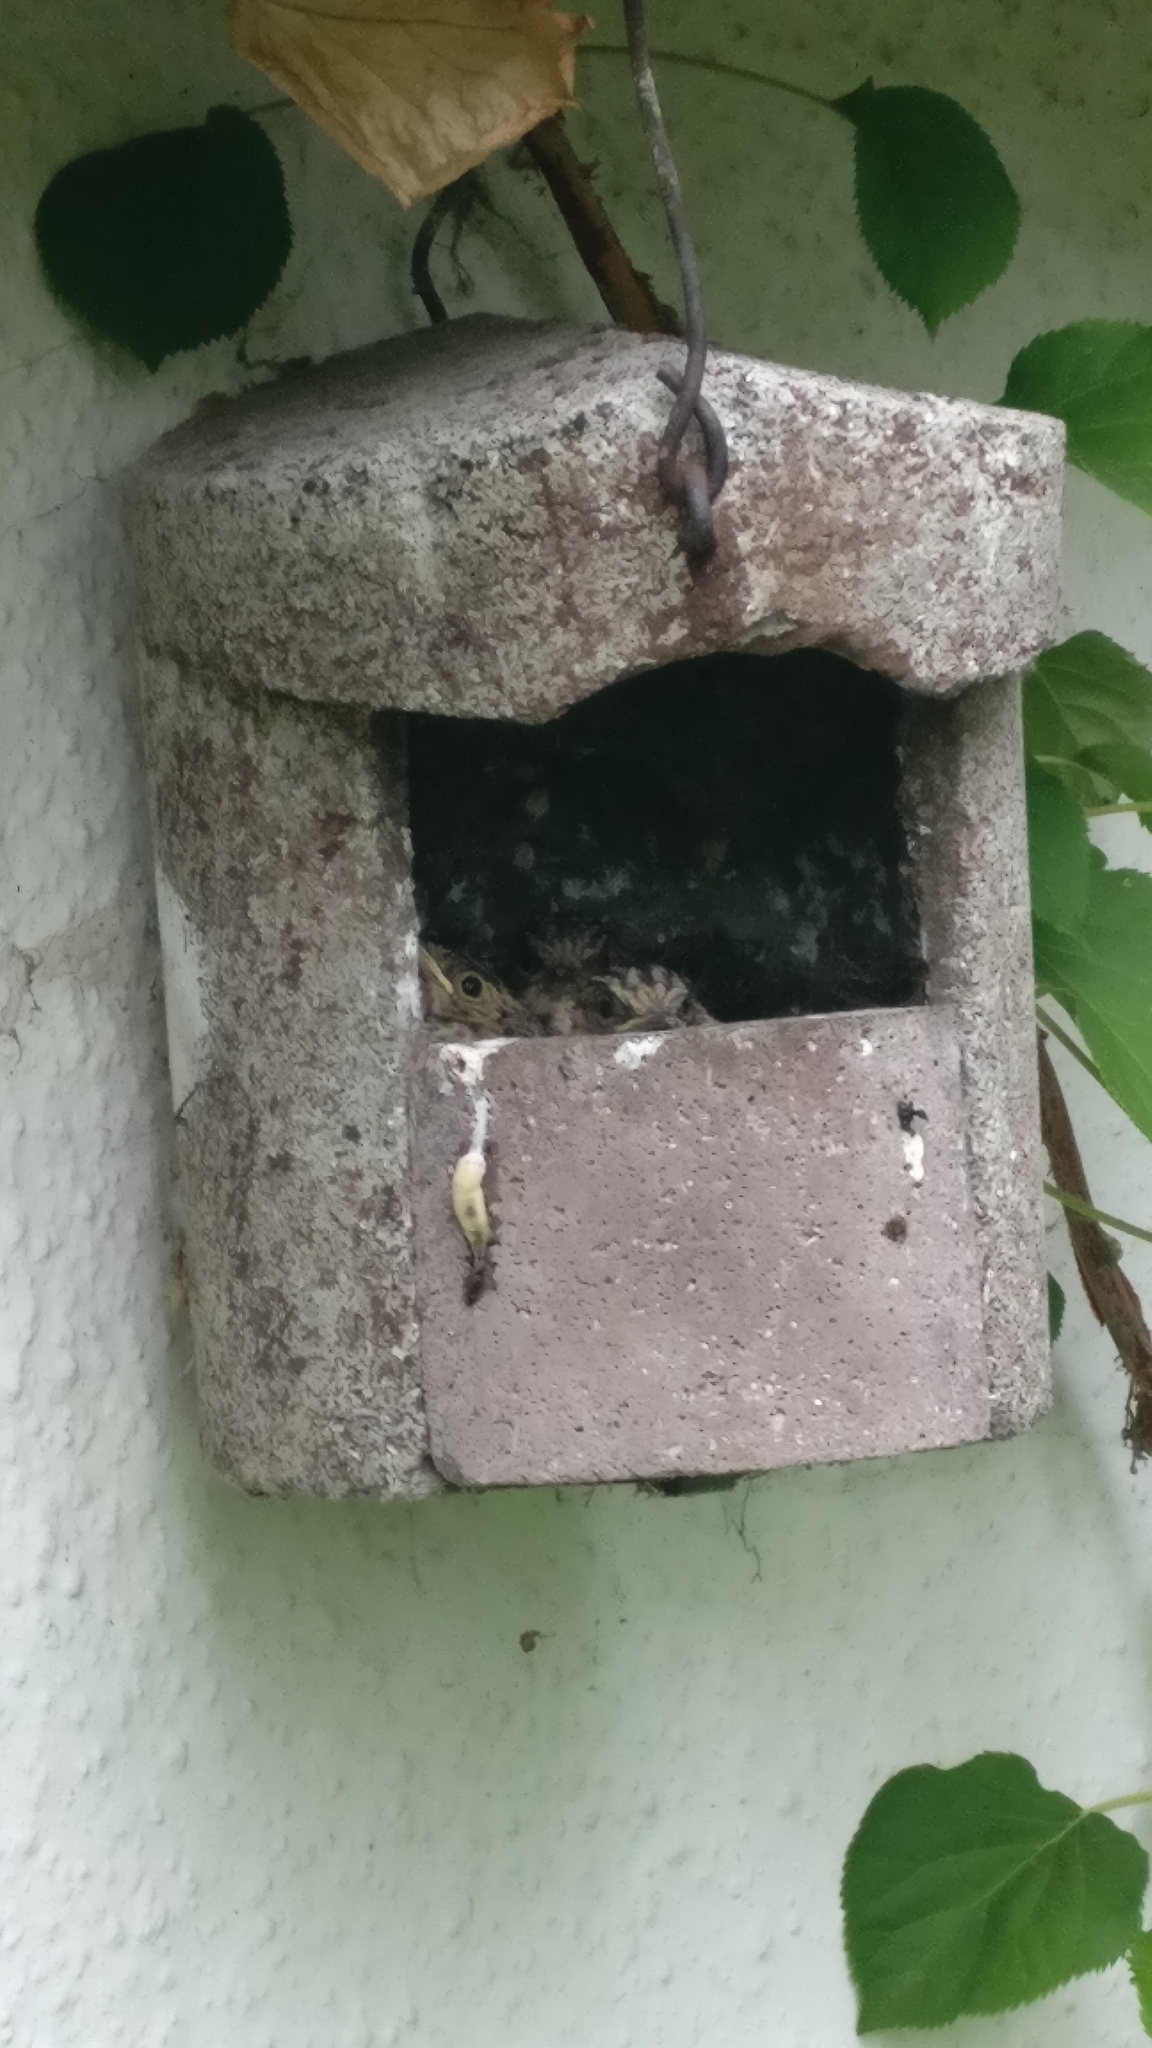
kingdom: Animalia
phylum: Chordata
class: Aves
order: Passeriformes
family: Muscicapidae
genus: Muscicapa
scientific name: Muscicapa striata
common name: Spotted flycatcher
